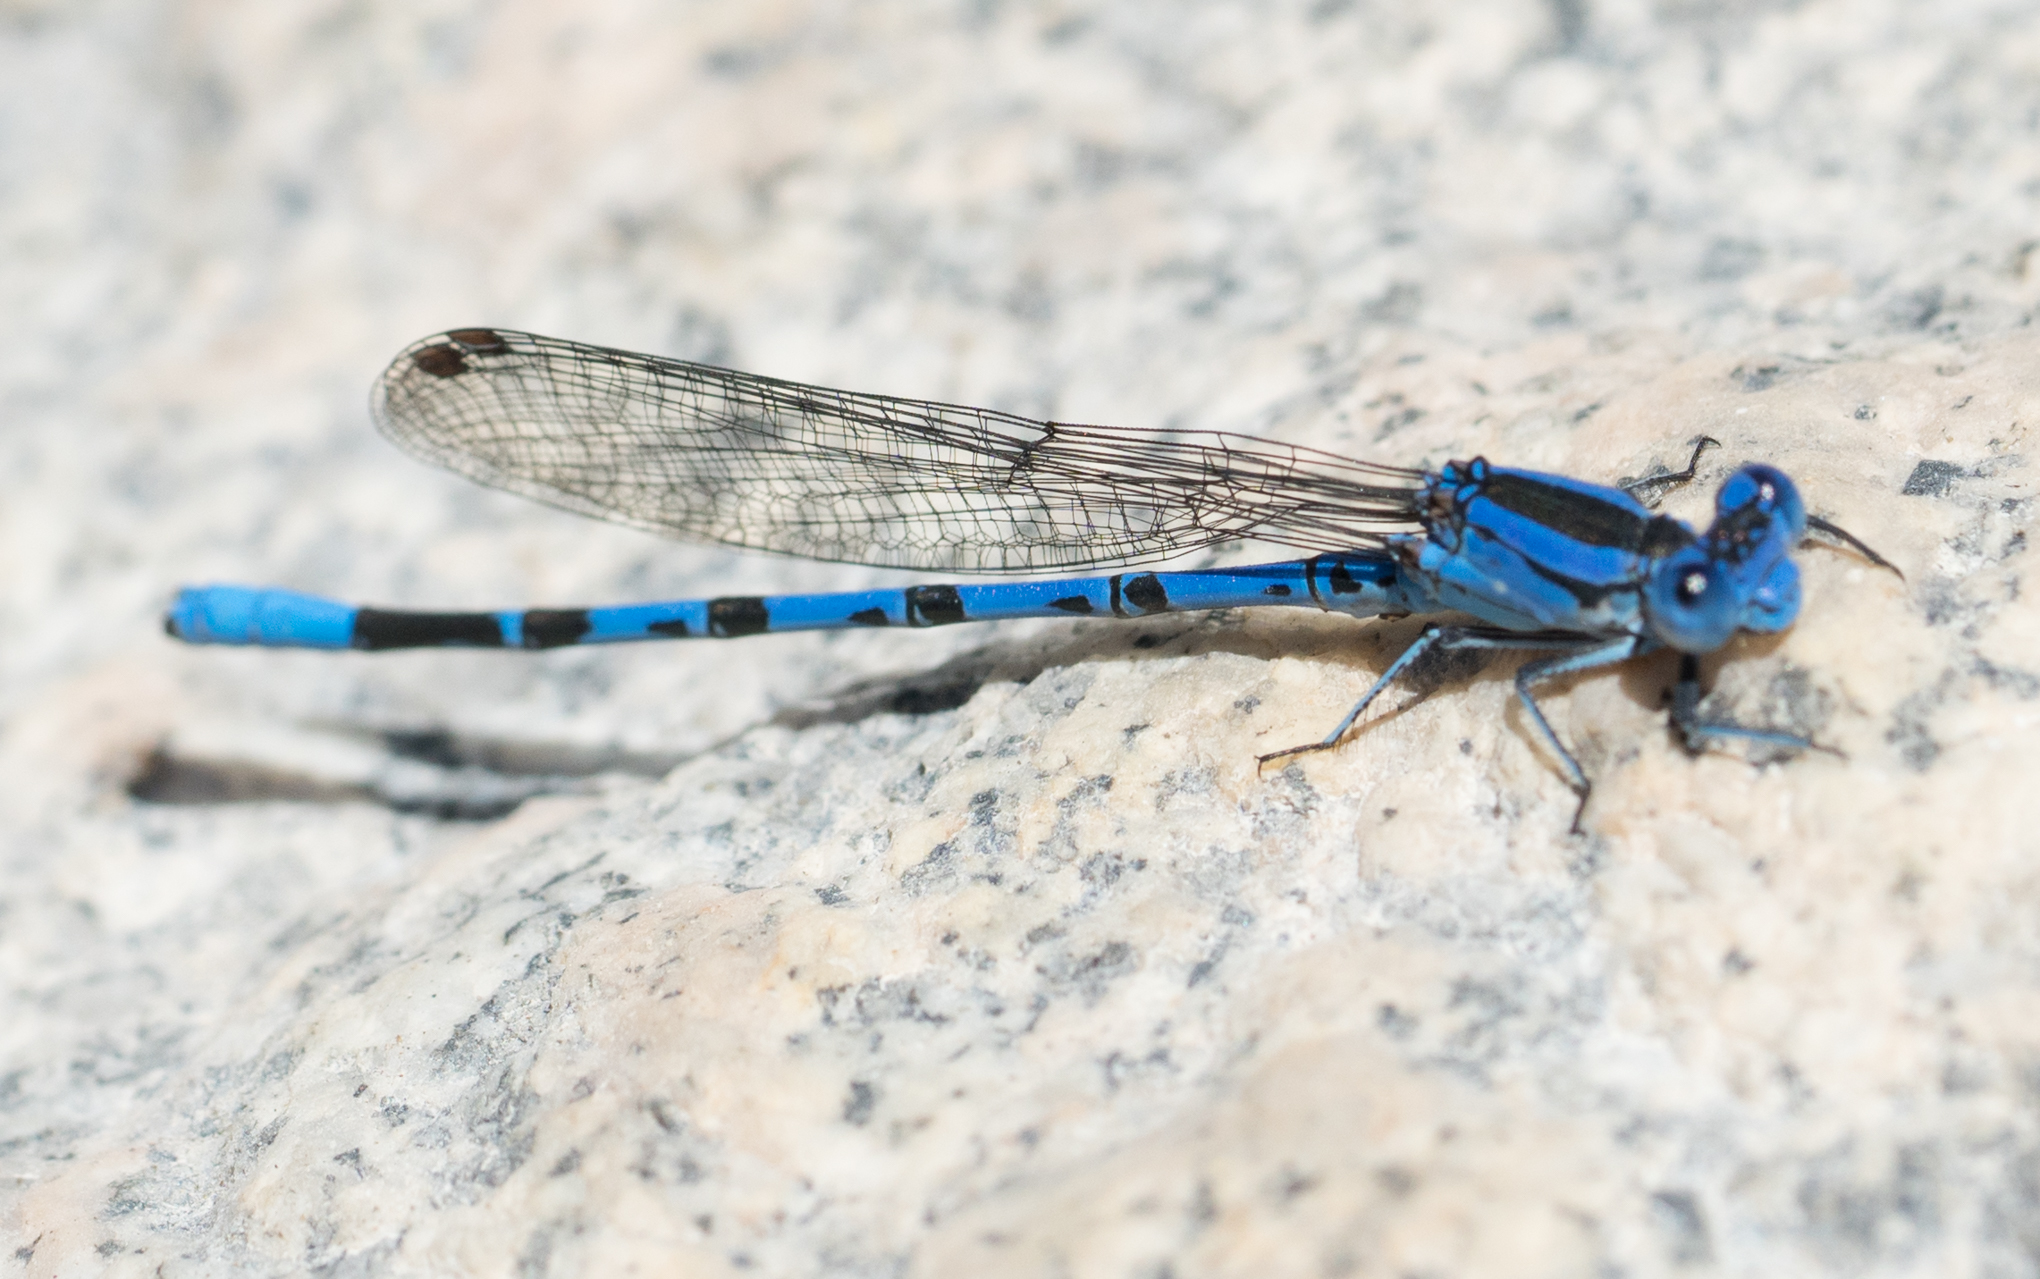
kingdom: Animalia
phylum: Arthropoda
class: Insecta
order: Odonata
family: Coenagrionidae
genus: Argia
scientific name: Argia vivida
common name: Vivid dancer
